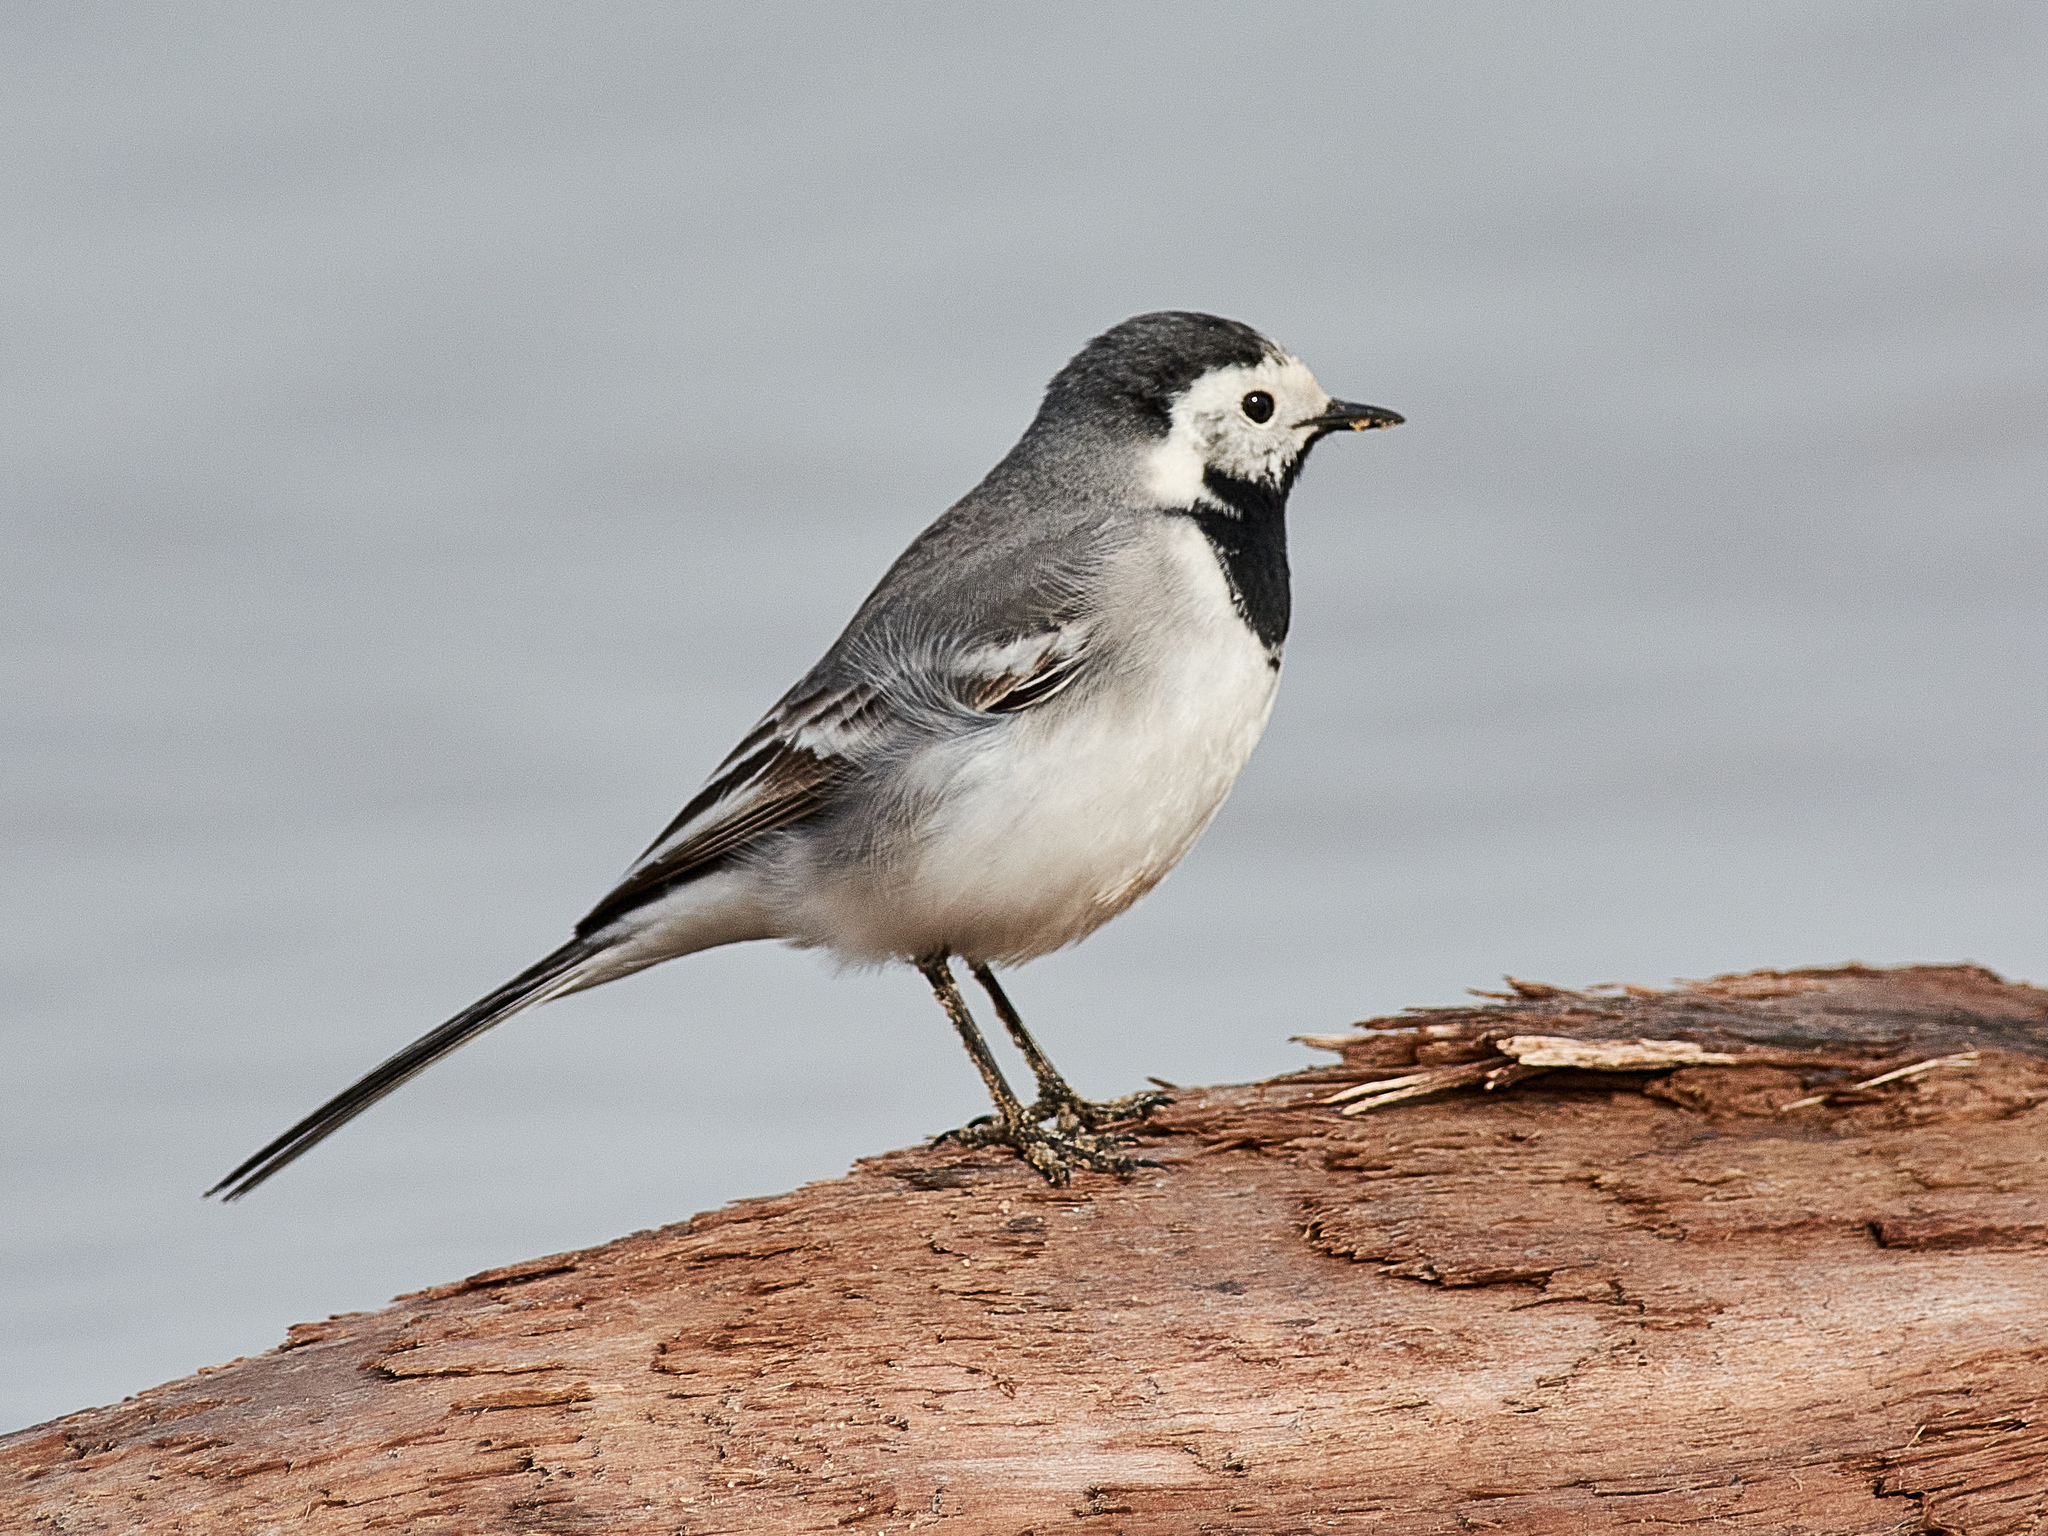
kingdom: Animalia
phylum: Chordata
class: Aves
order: Passeriformes
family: Motacillidae
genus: Motacilla
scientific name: Motacilla alba
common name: White wagtail
